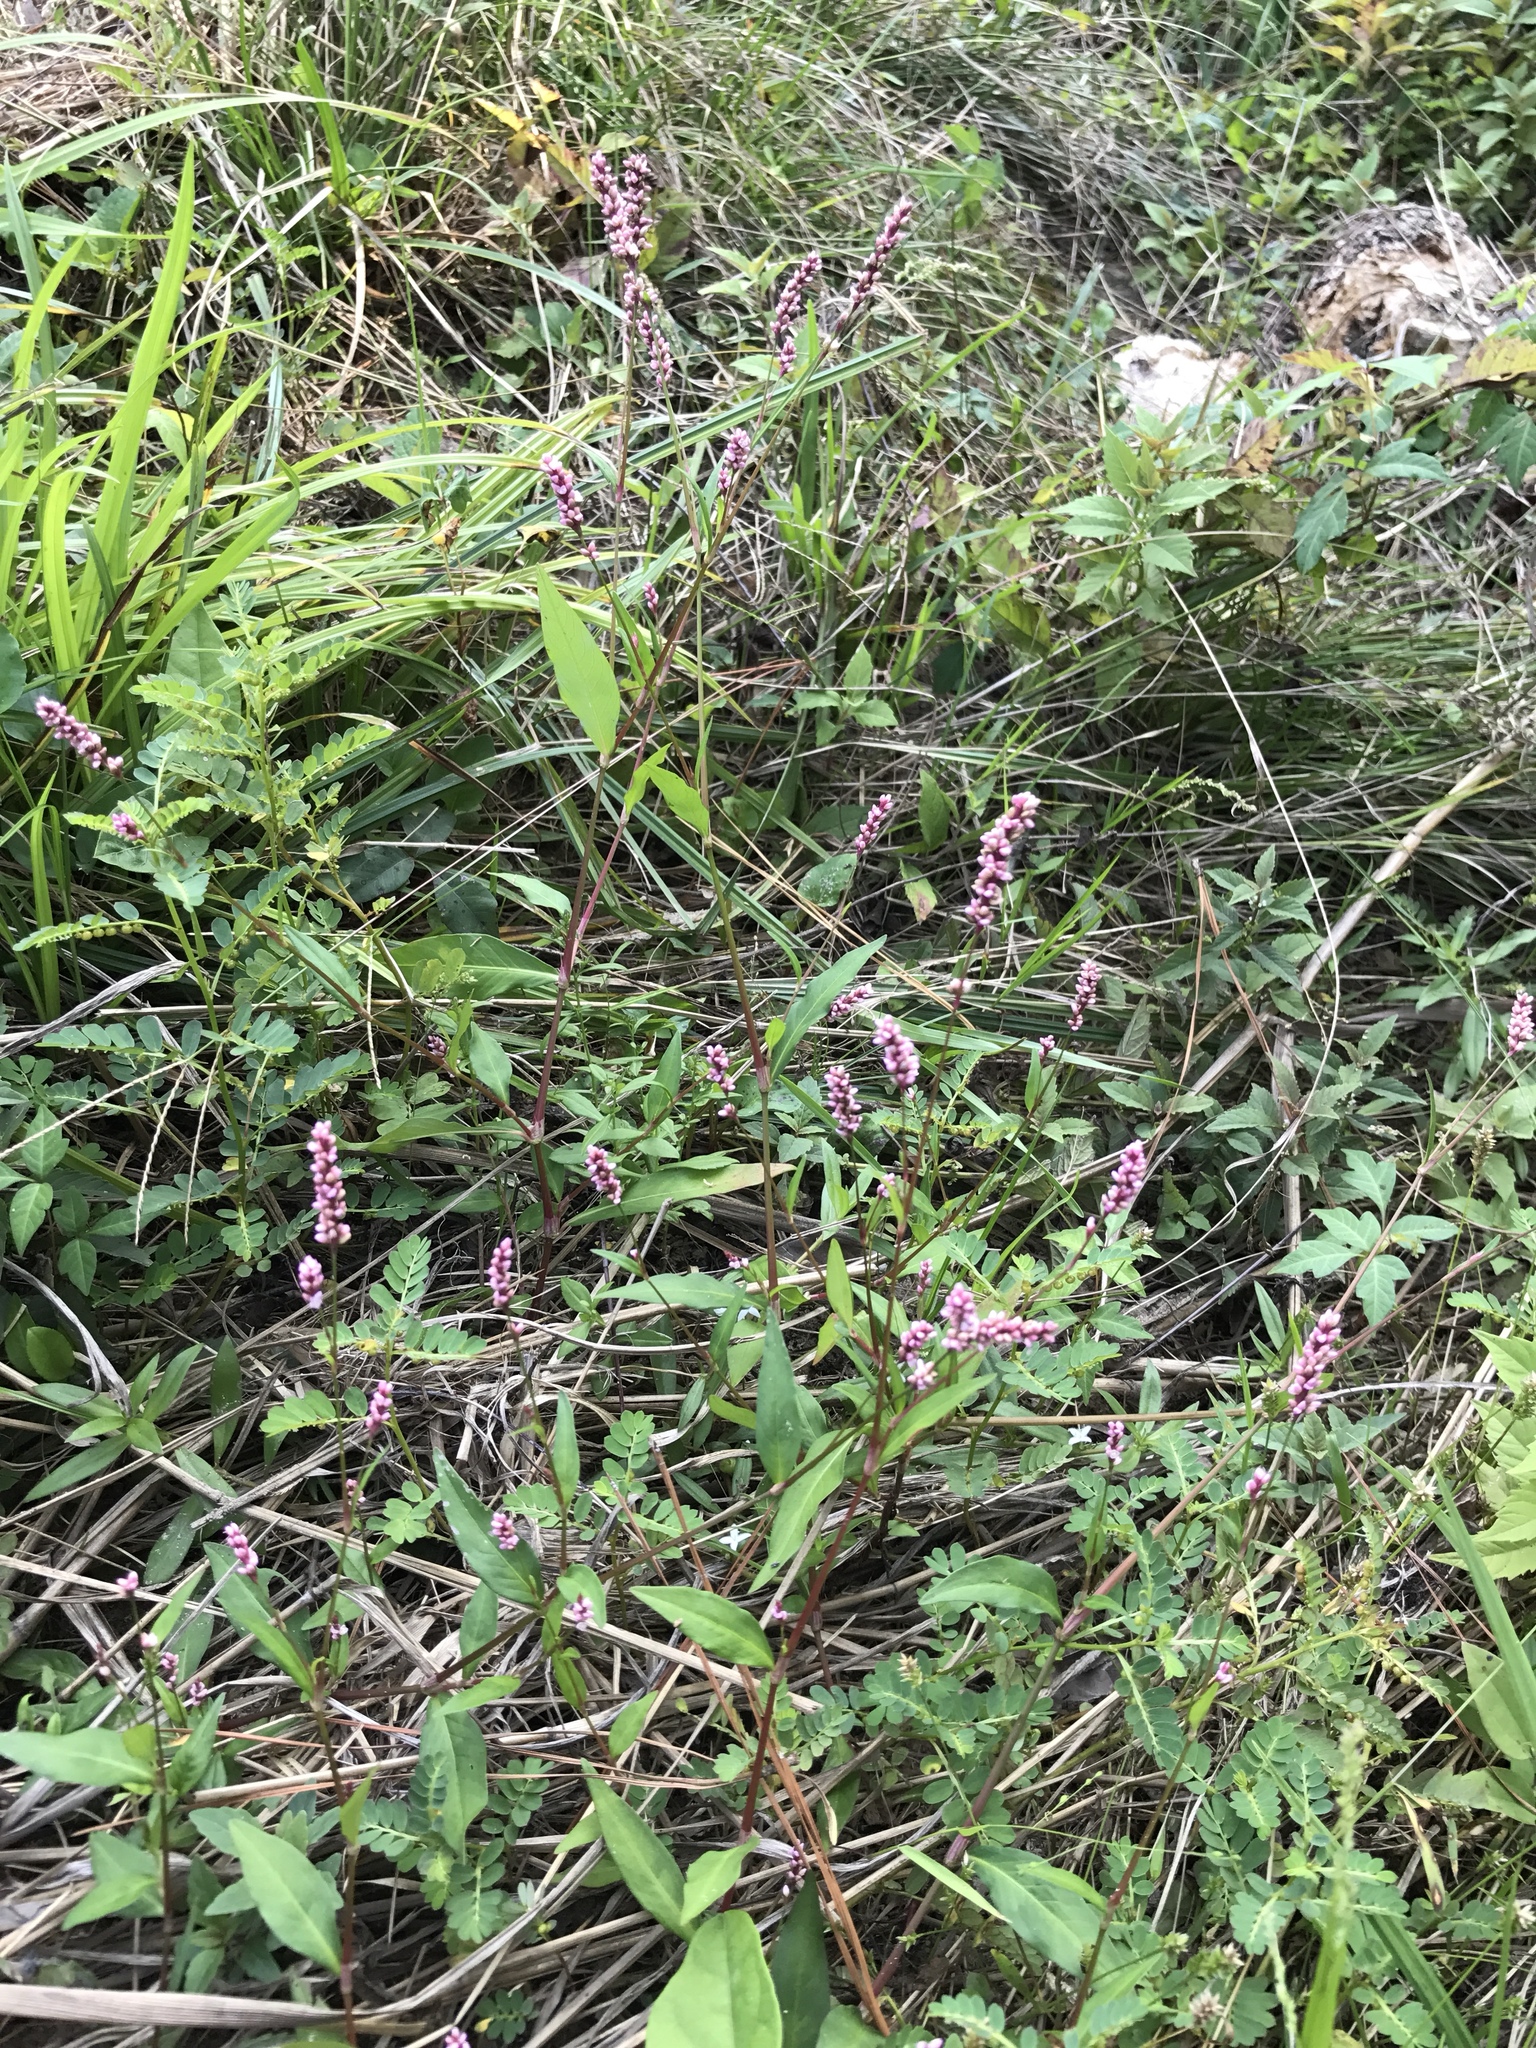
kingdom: Plantae
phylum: Tracheophyta
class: Magnoliopsida
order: Caryophyllales
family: Polygonaceae
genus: Persicaria
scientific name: Persicaria hydropiperoides
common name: Swamp smartweed
